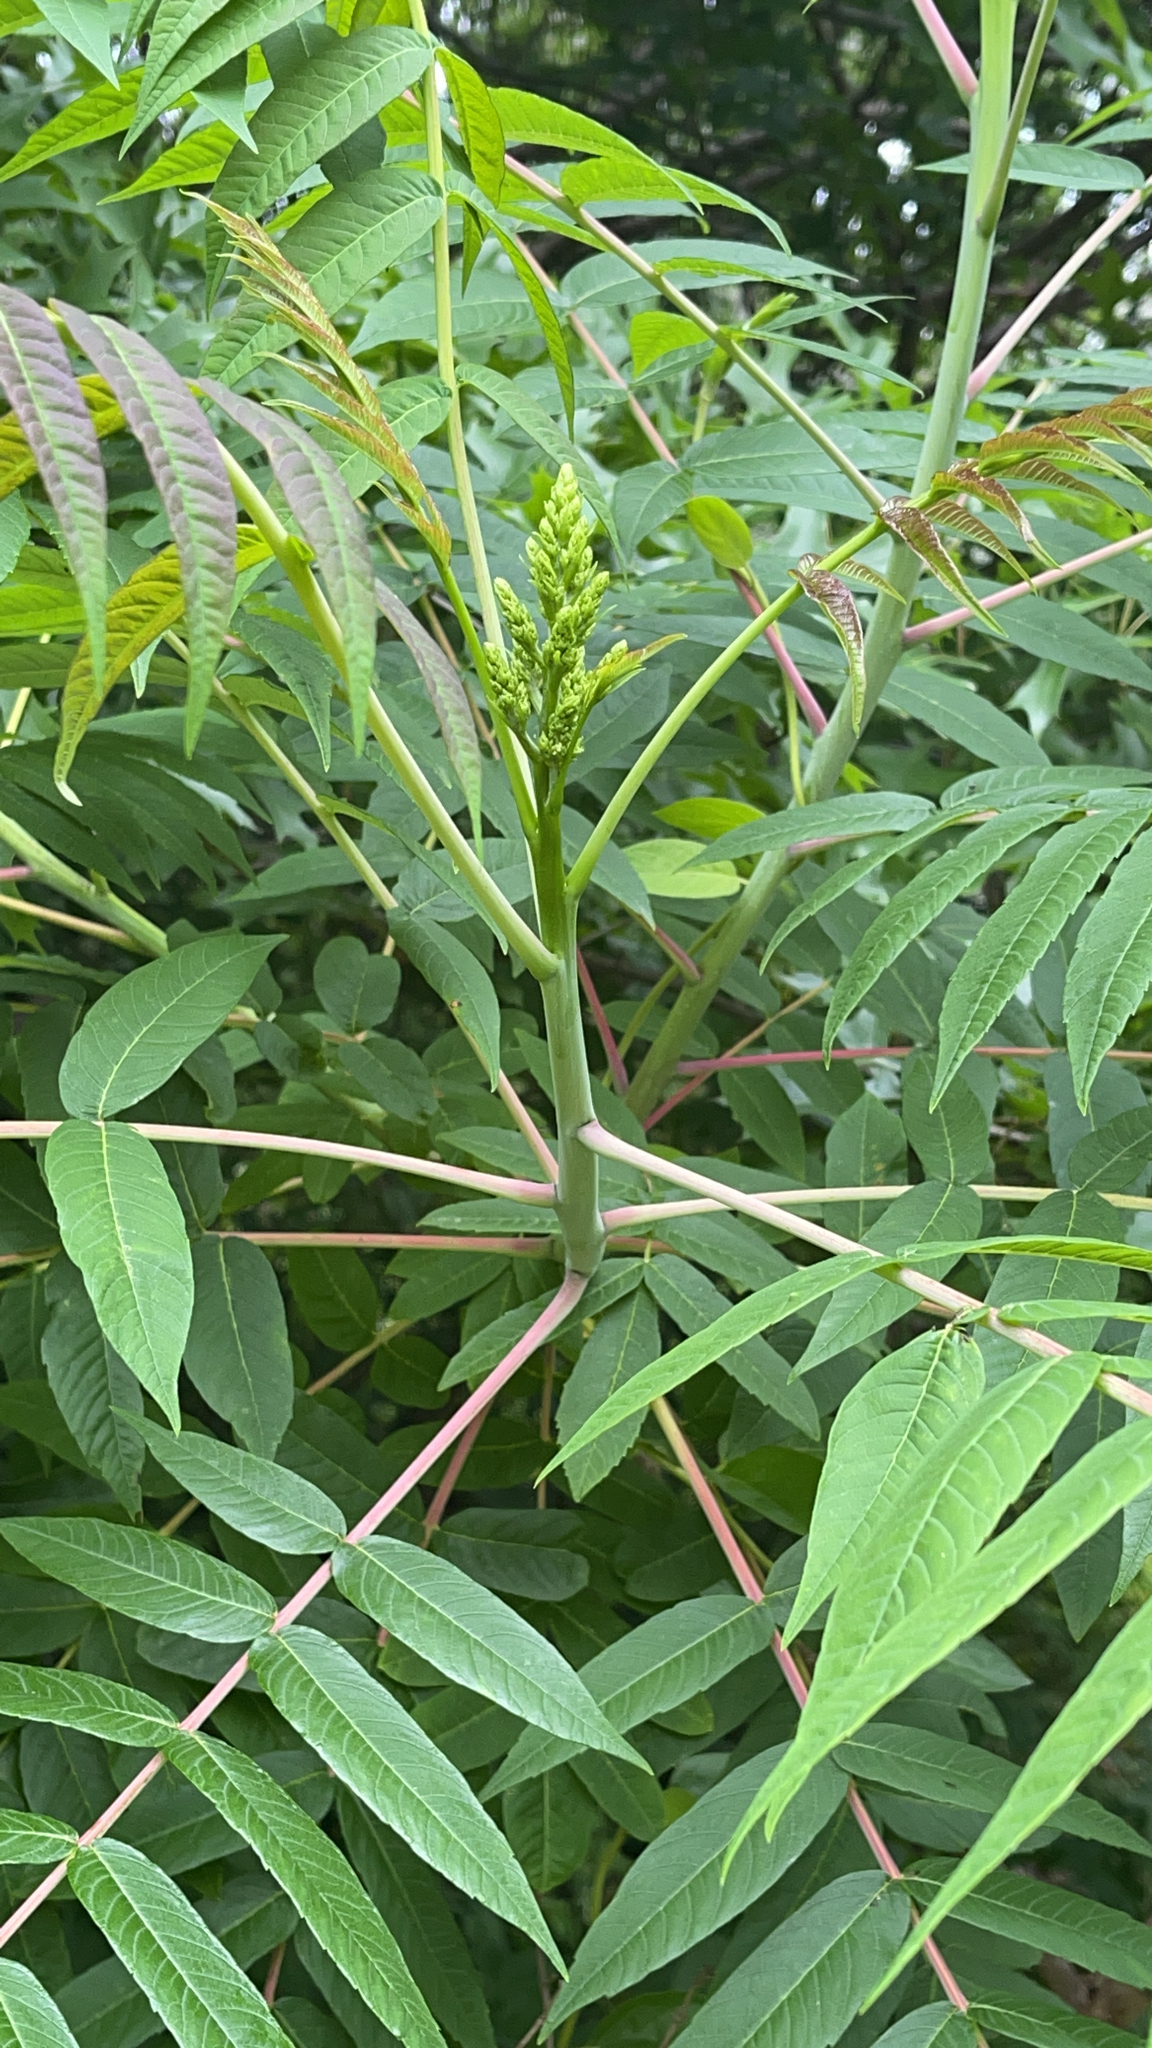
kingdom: Plantae
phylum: Tracheophyta
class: Magnoliopsida
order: Sapindales
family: Anacardiaceae
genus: Rhus
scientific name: Rhus glabra
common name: Scarlet sumac
